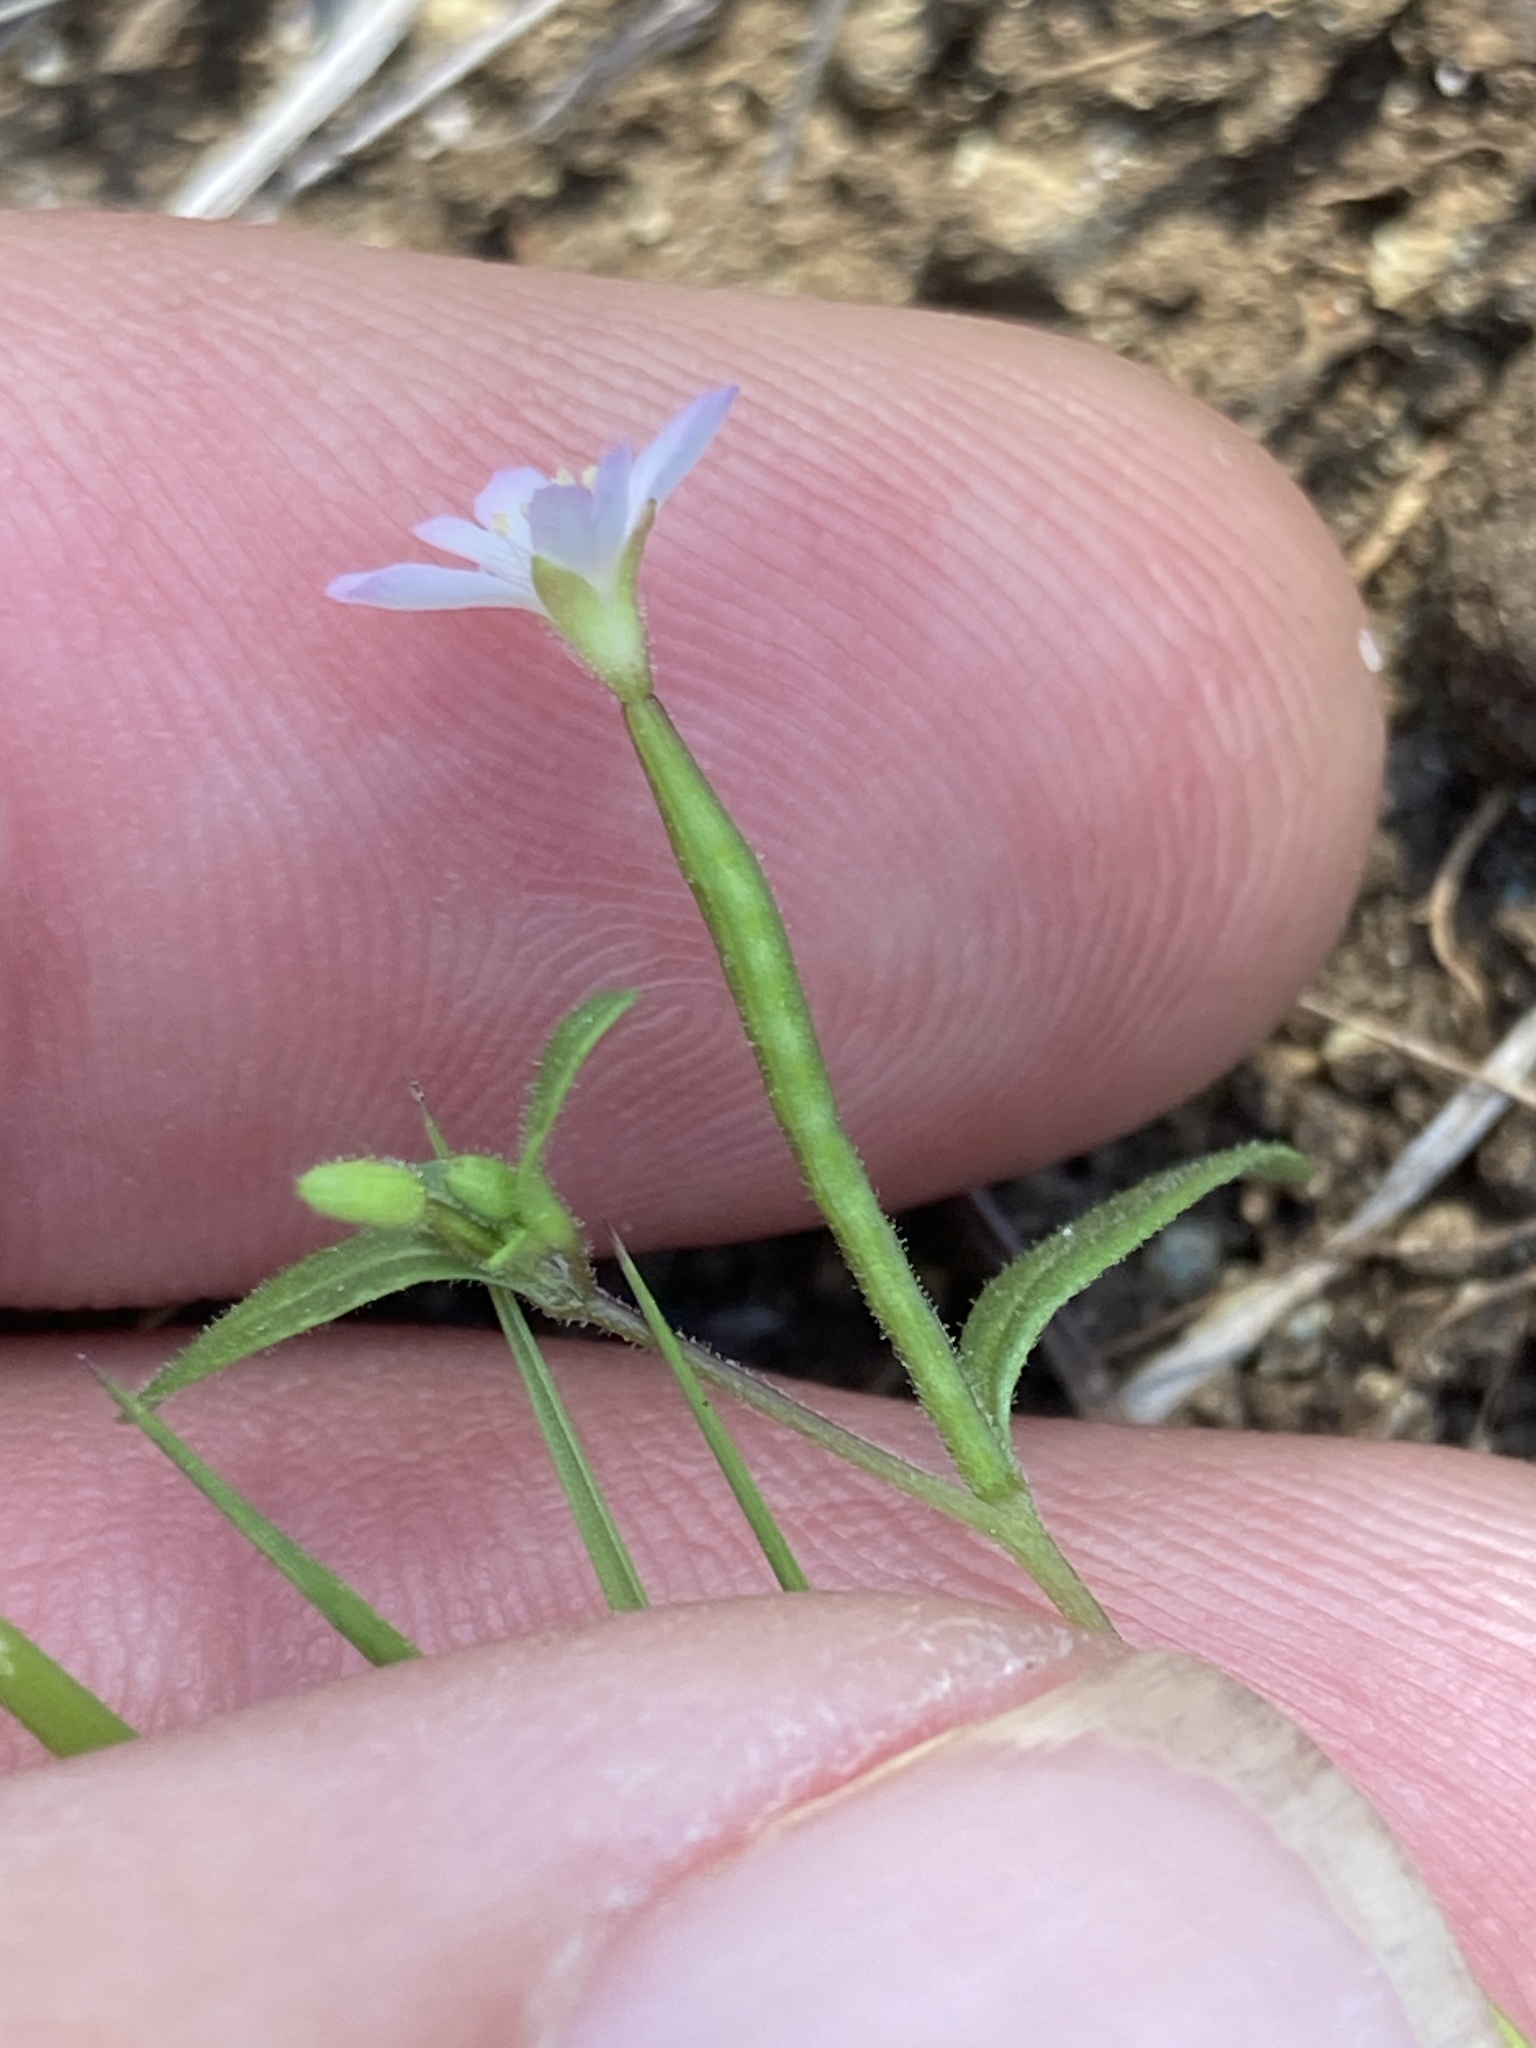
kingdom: Plantae
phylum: Tracheophyta
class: Magnoliopsida
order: Myrtales
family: Onagraceae
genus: Epilobium
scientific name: Epilobium minutum
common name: Chaparral willowherb
